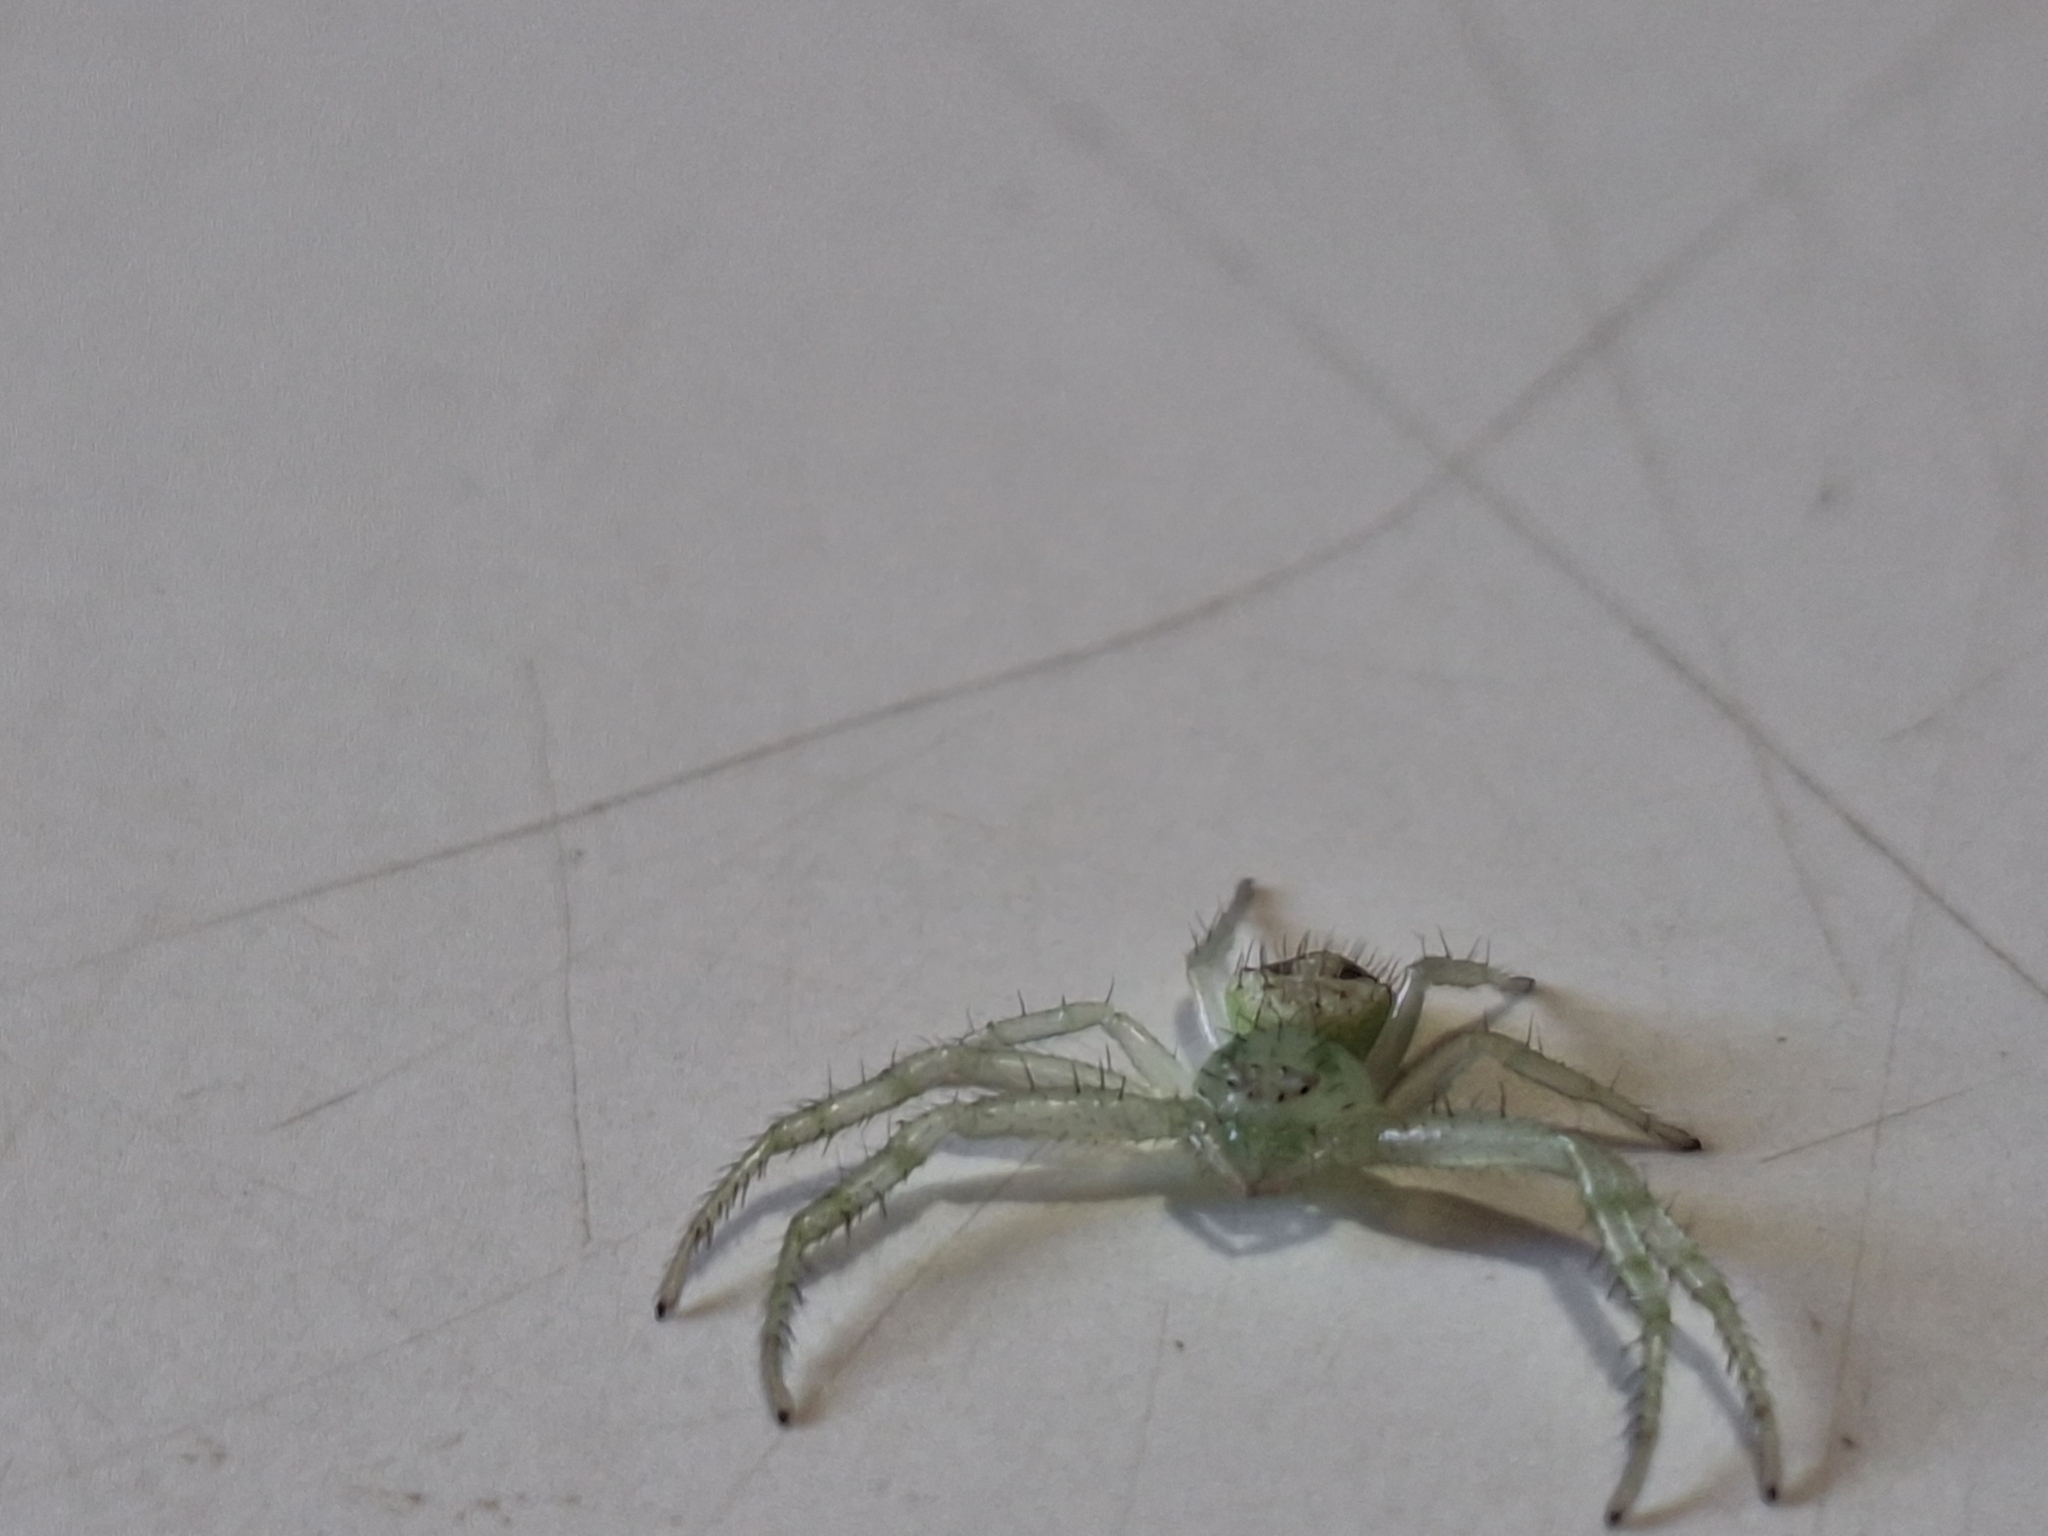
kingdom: Animalia
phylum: Arthropoda
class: Arachnida
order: Araneae
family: Thomisidae
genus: Misumenops
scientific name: Misumenops
